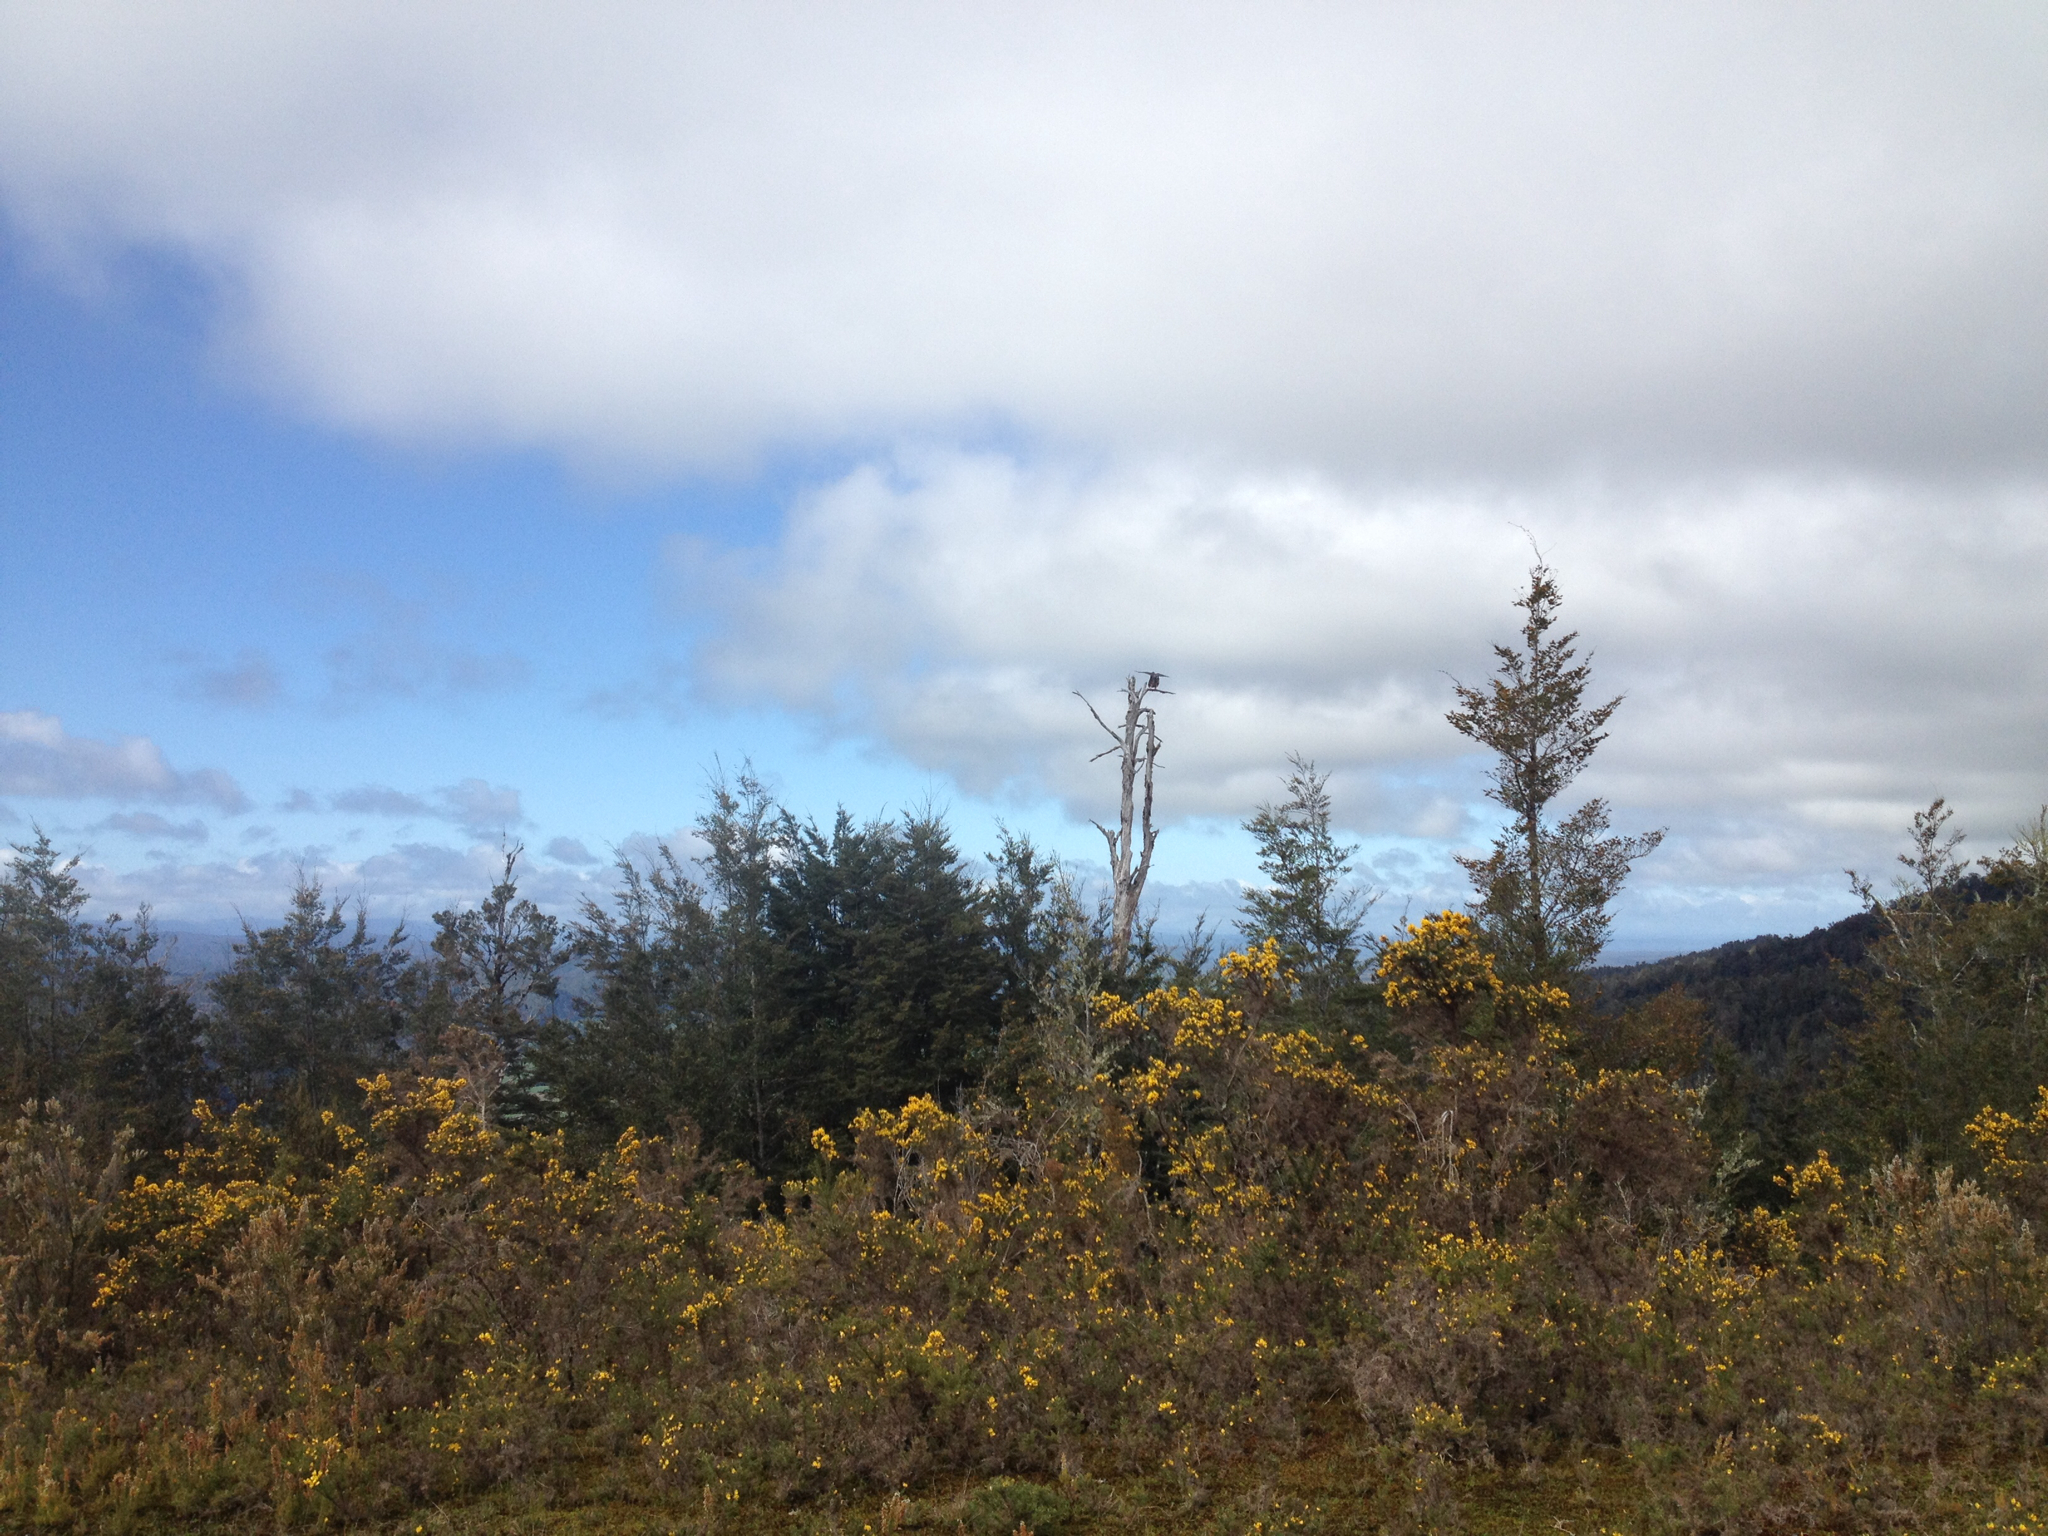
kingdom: Animalia
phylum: Chordata
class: Aves
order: Falconiformes
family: Falconidae
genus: Falco
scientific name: Falco novaeseelandiae
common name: New zealand falcon
